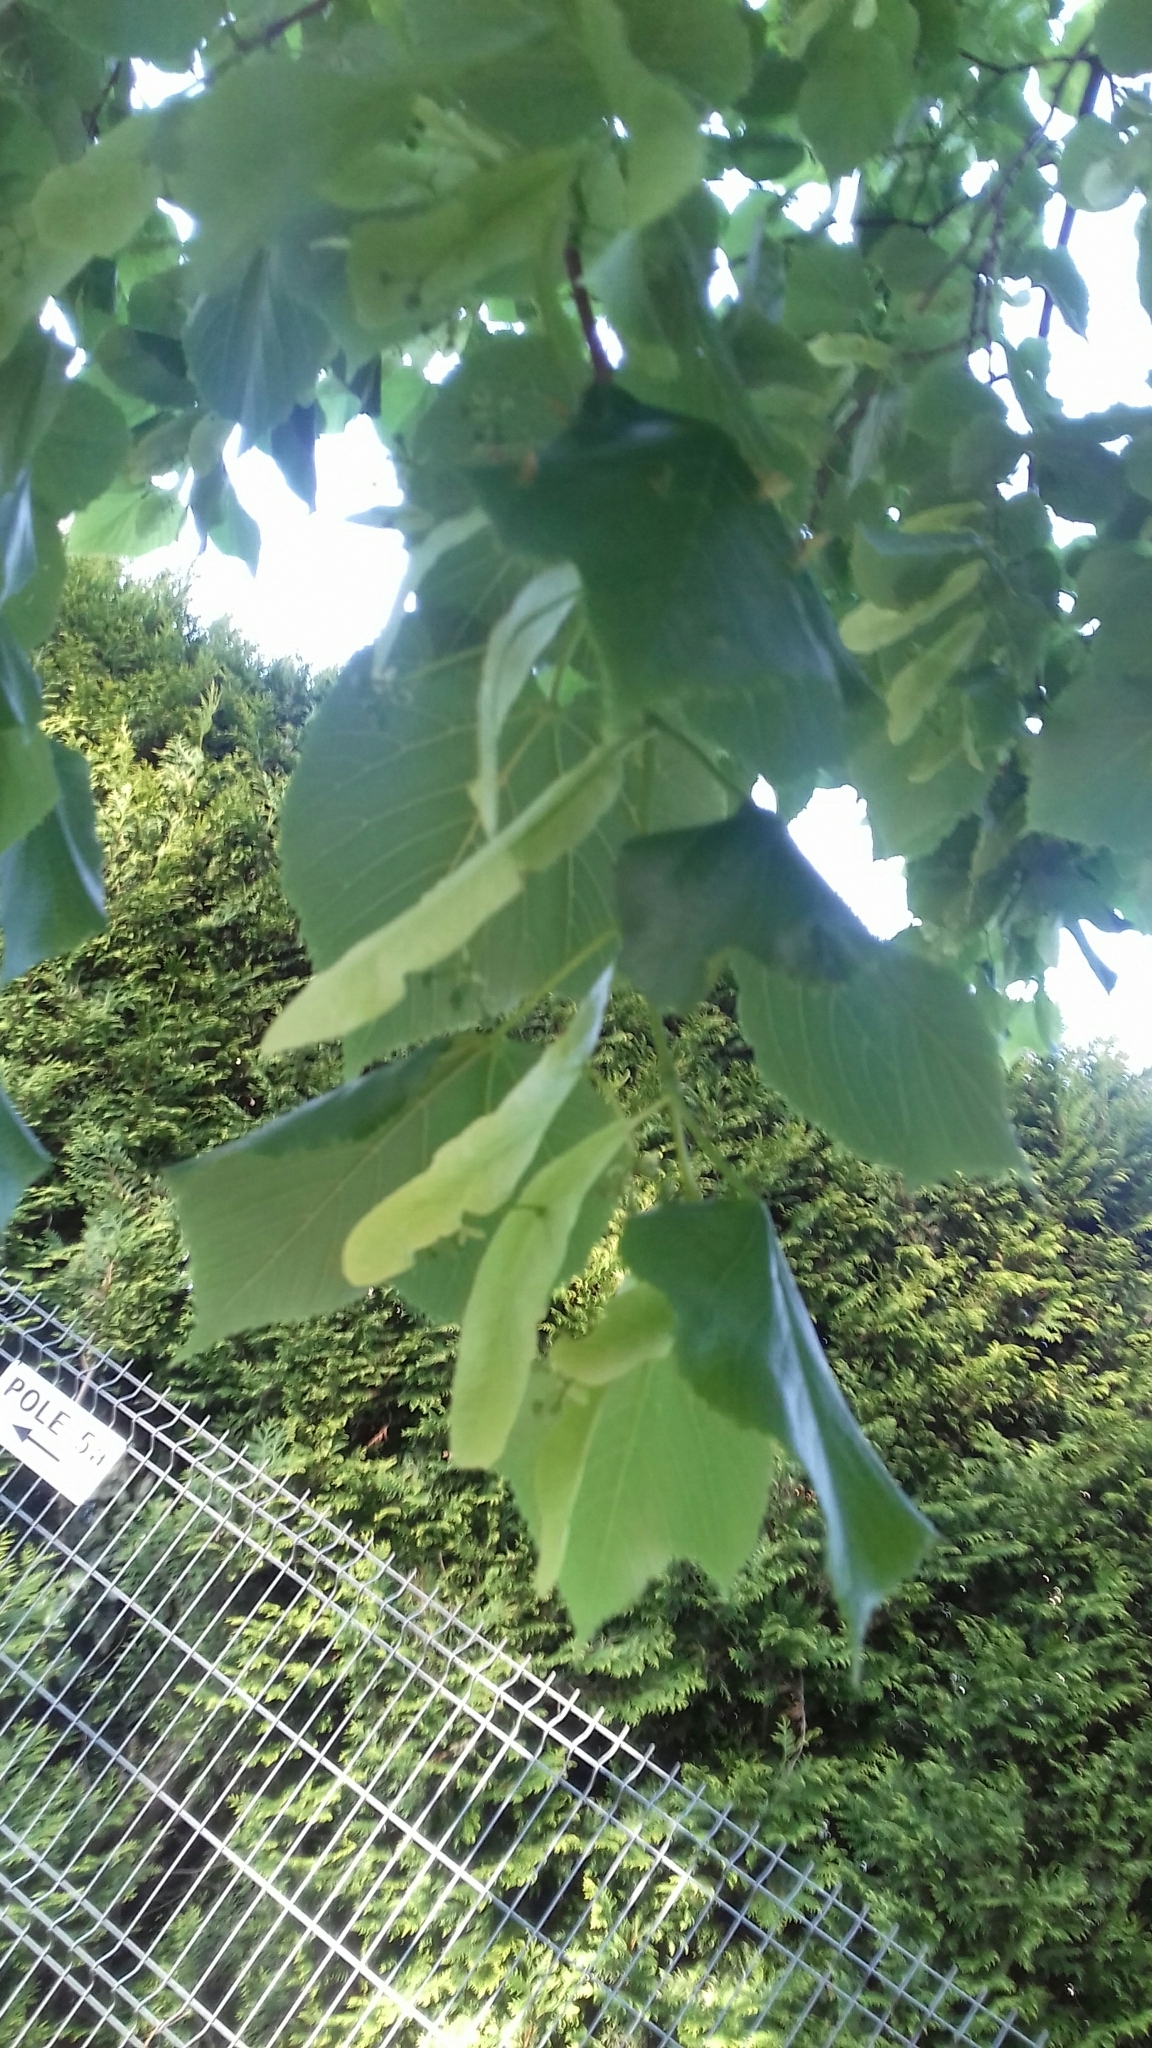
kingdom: Plantae
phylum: Tracheophyta
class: Magnoliopsida
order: Malvales
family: Malvaceae
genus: Tilia
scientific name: Tilia platyphyllos
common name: Large-leaved lime
